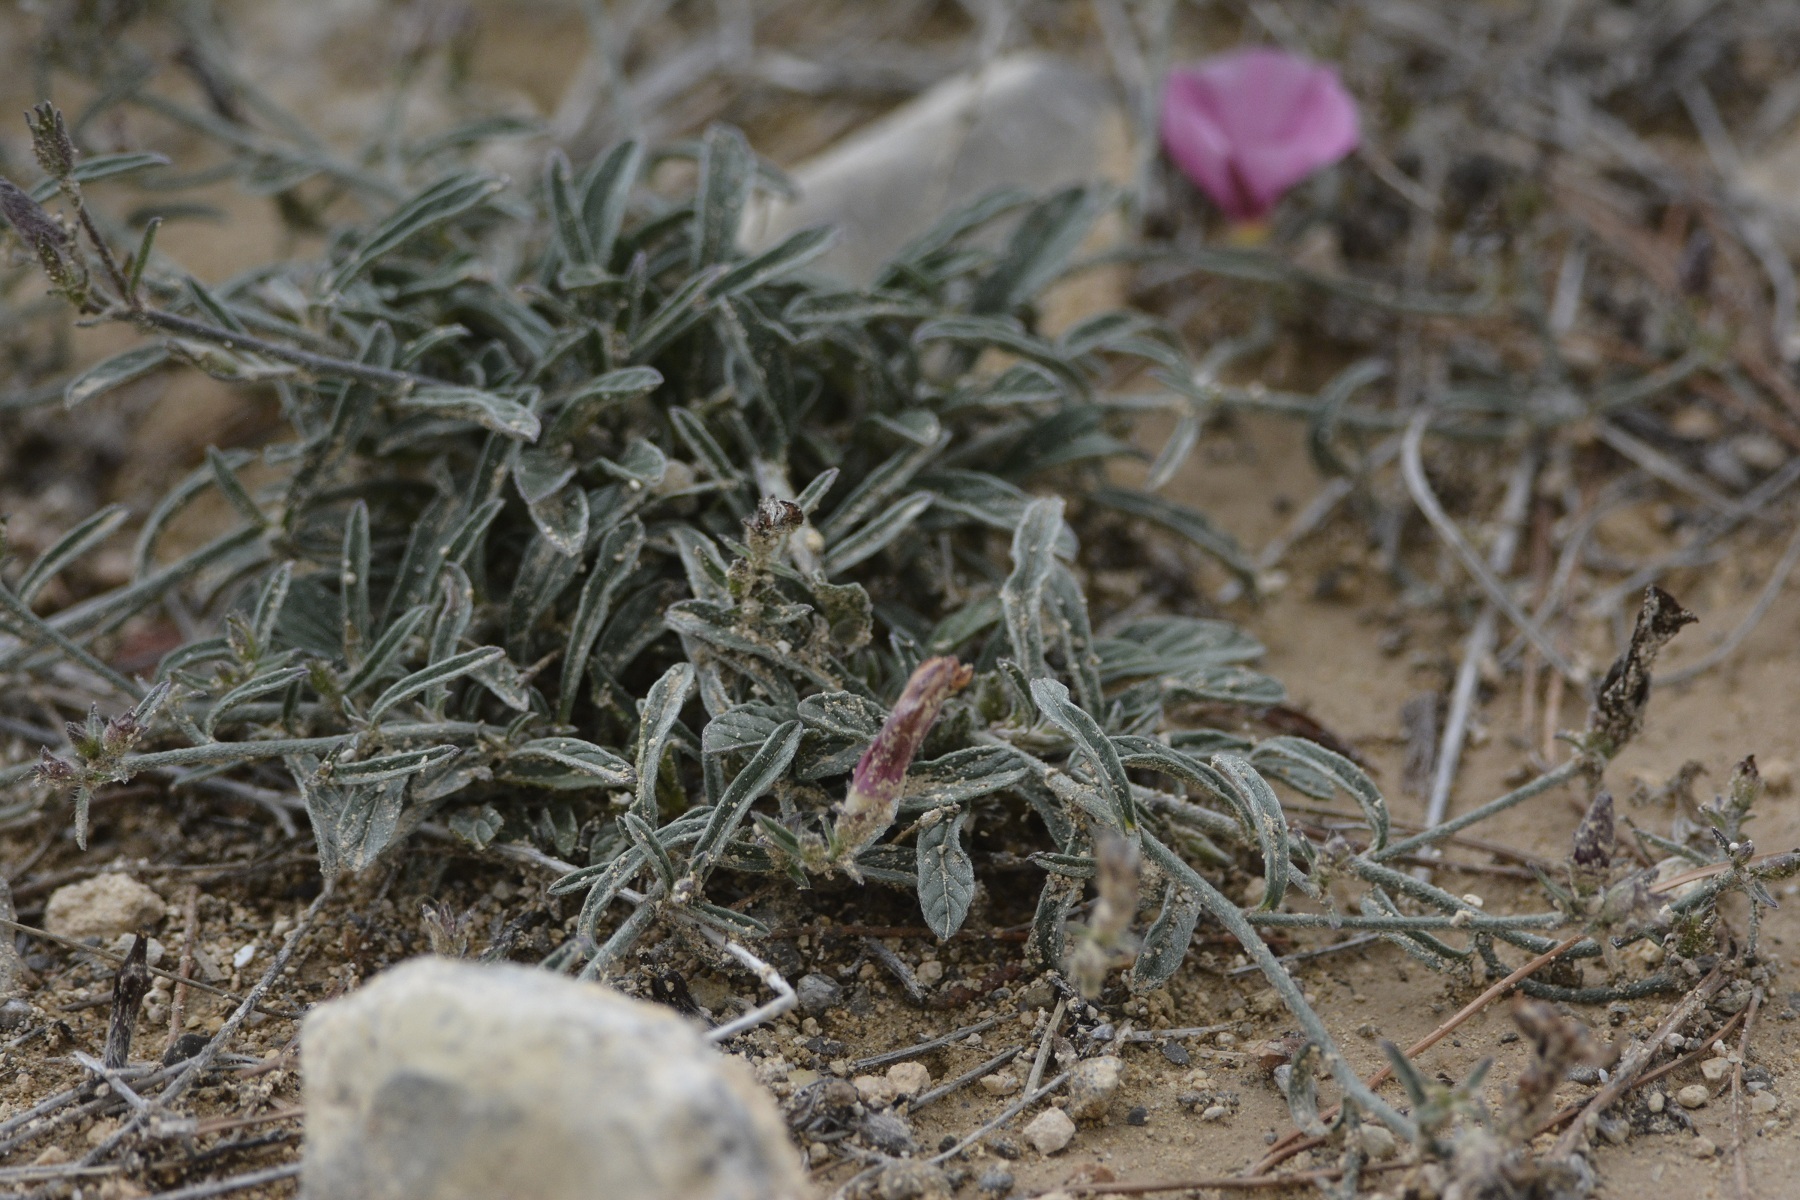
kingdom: Plantae
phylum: Tracheophyta
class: Magnoliopsida
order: Solanales
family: Convolvulaceae
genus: Convolvulus
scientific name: Convolvulus cantabrica
